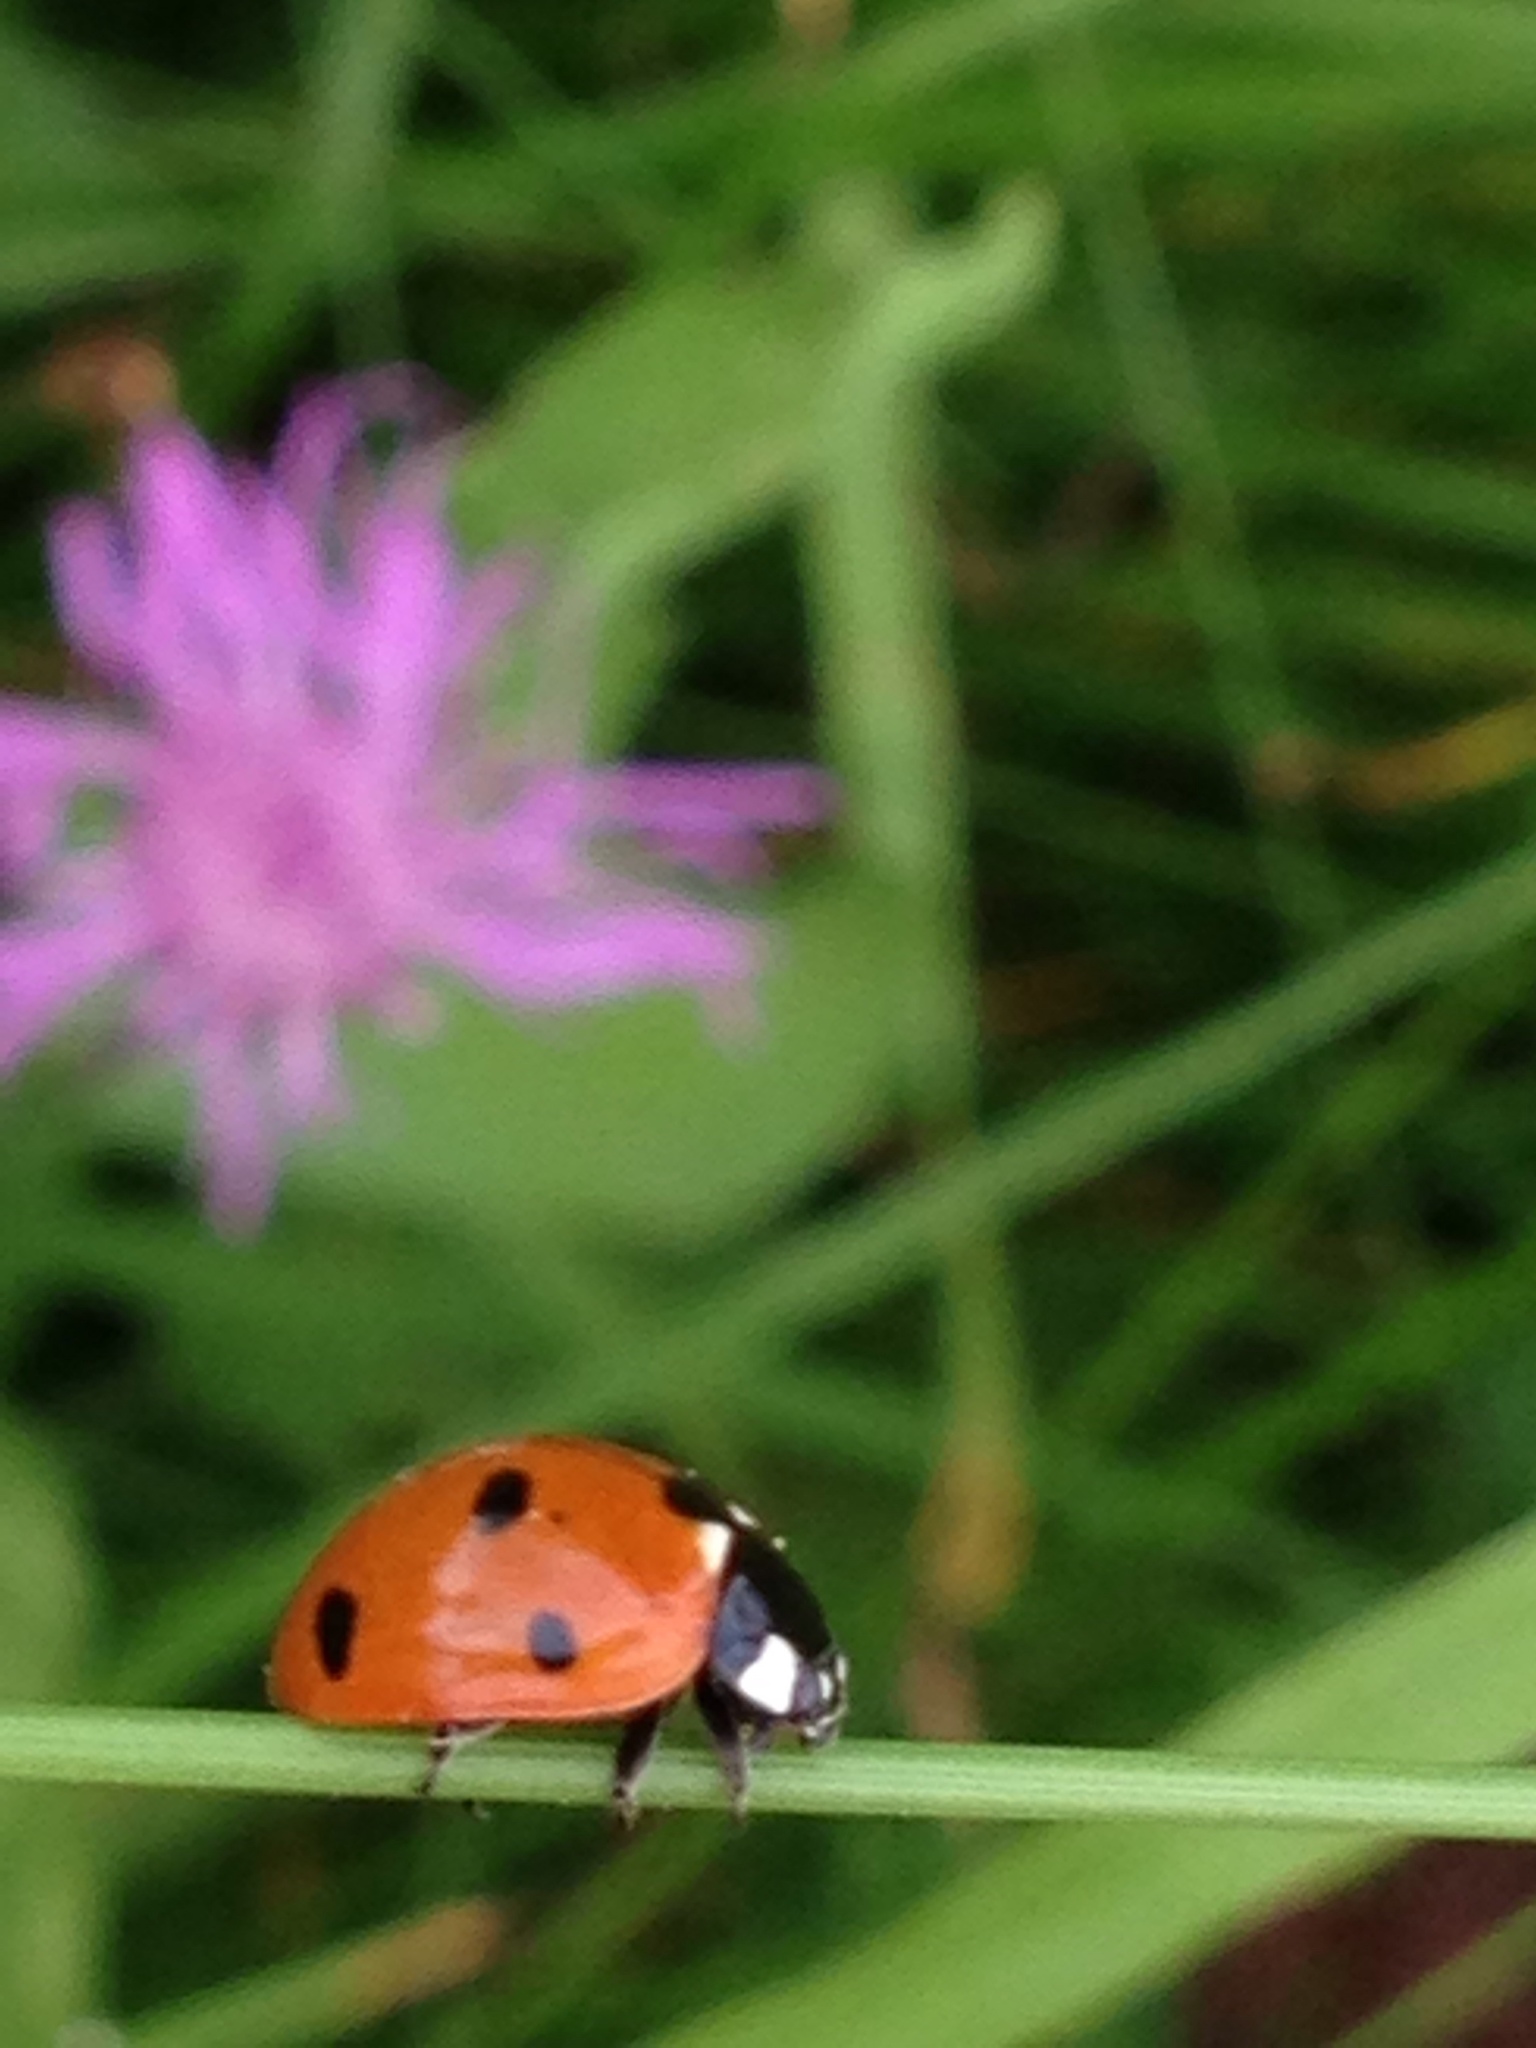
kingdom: Animalia
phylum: Arthropoda
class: Insecta
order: Coleoptera
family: Coccinellidae
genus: Coccinella
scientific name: Coccinella septempunctata
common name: Sevenspotted lady beetle
